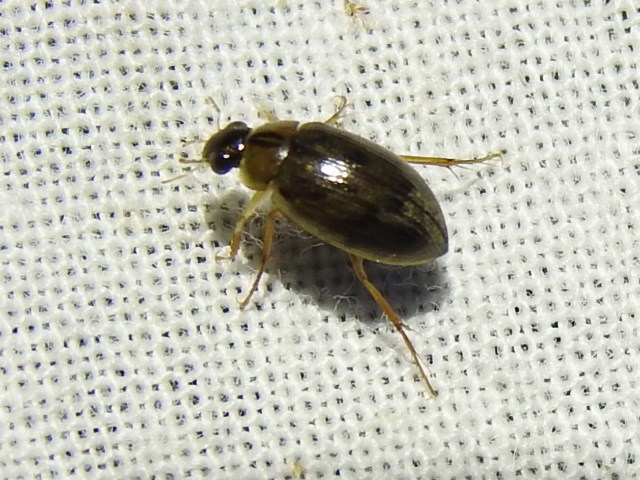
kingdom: Animalia
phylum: Arthropoda
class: Insecta
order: Coleoptera
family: Hydrophilidae
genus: Berosus
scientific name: Berosus
